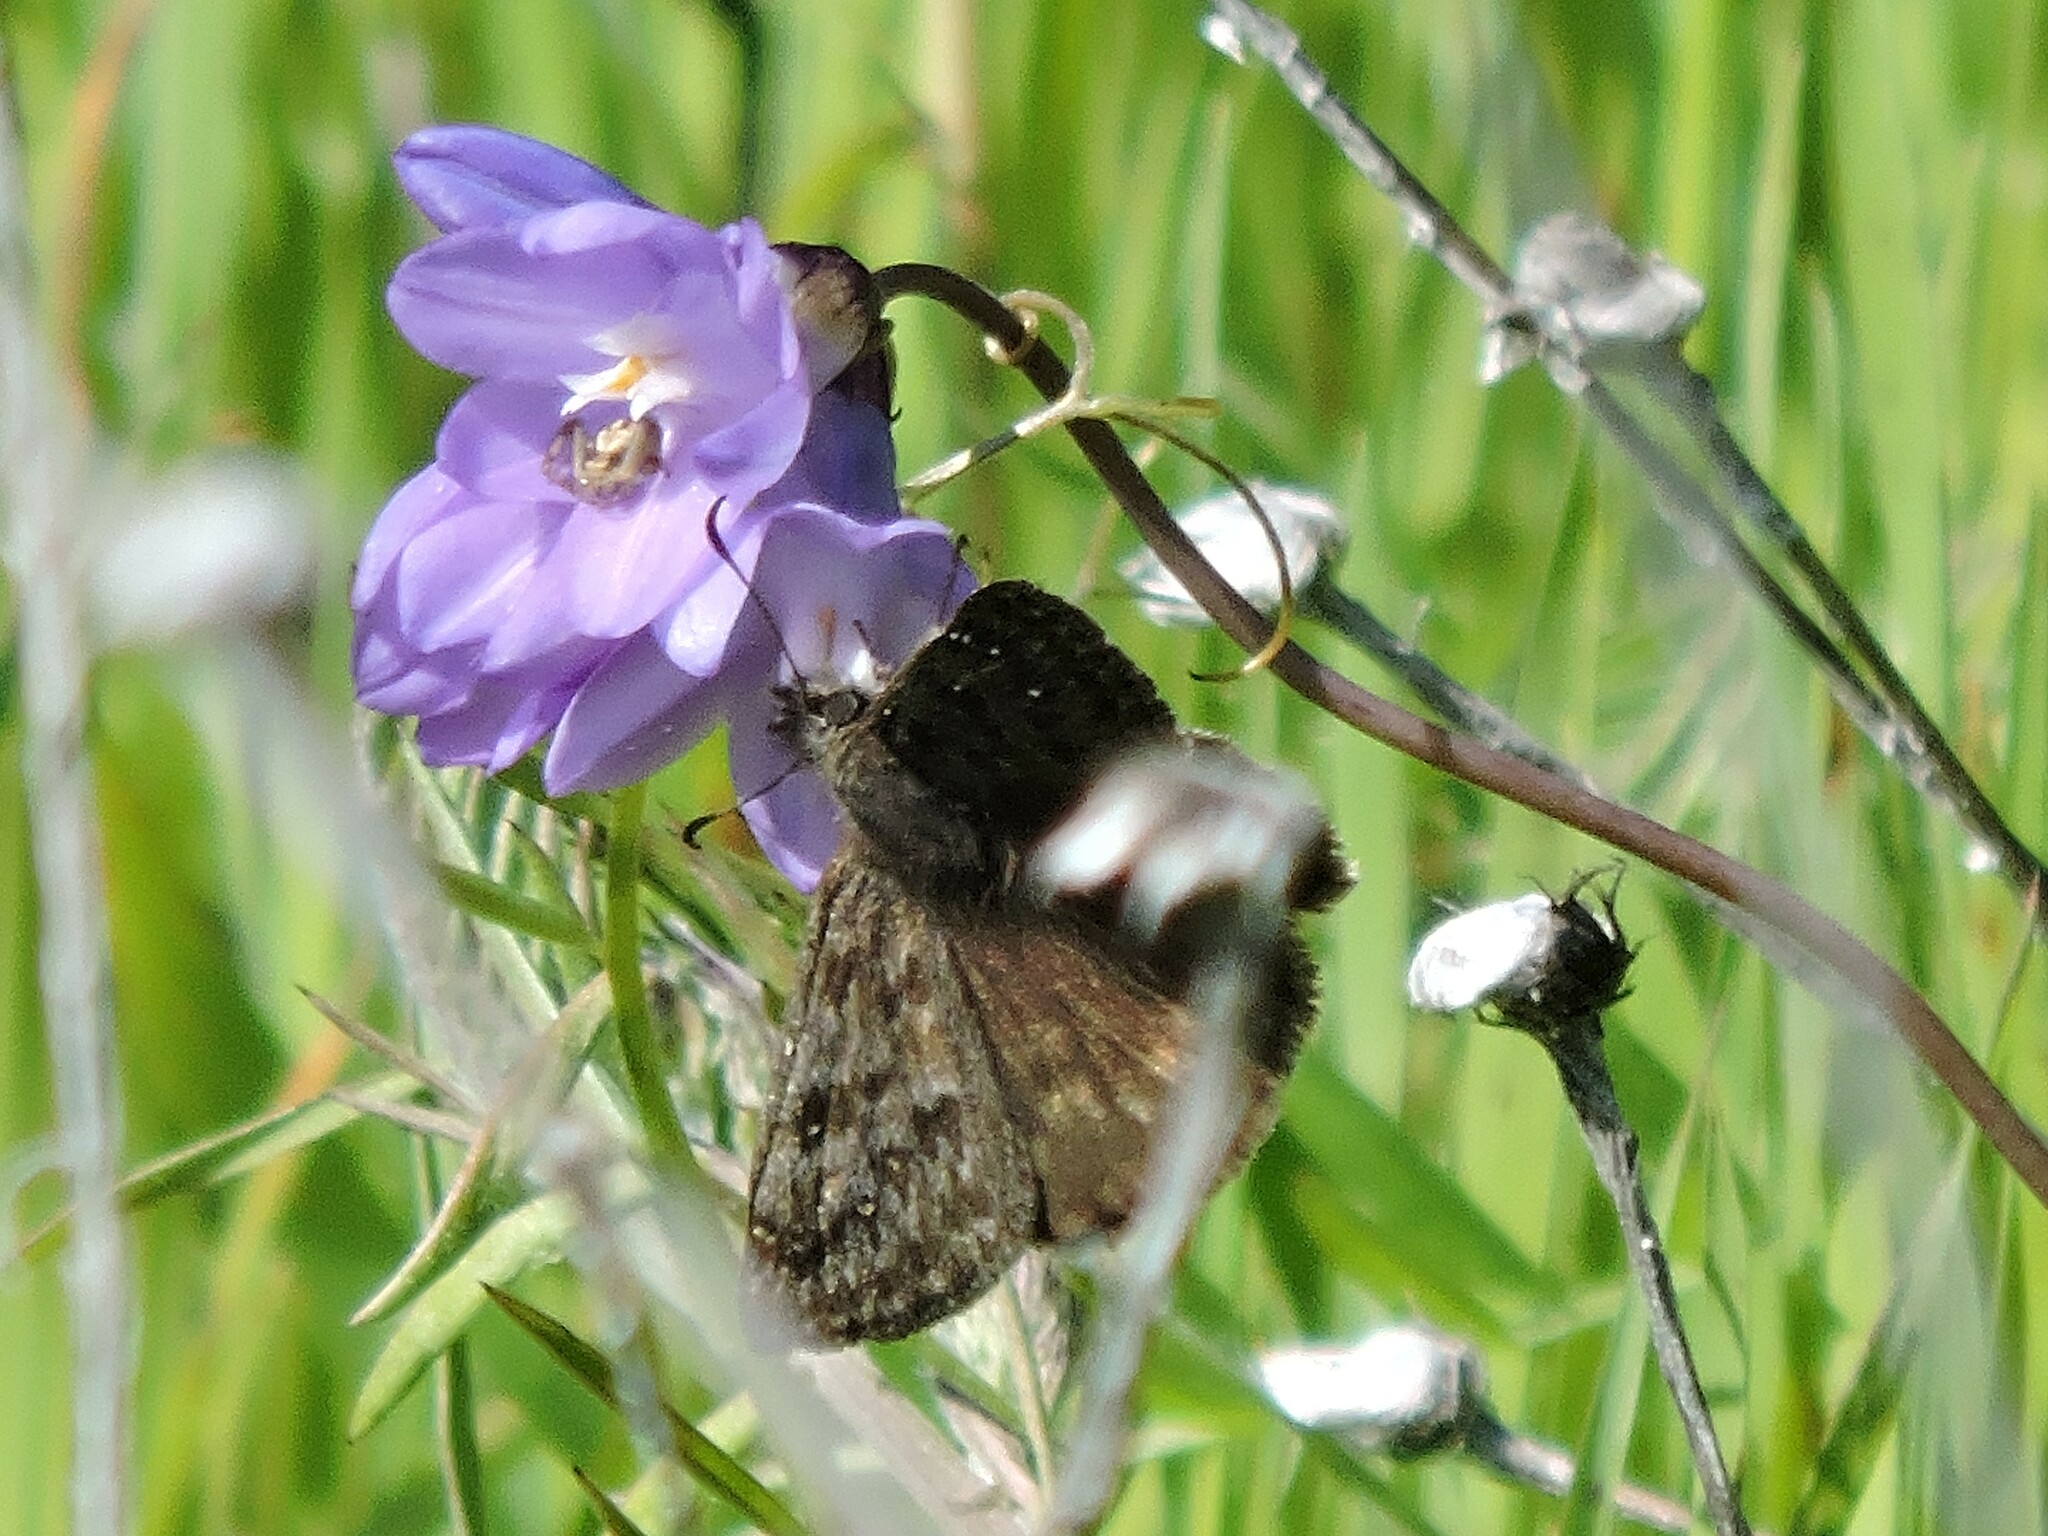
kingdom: Animalia
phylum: Arthropoda
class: Insecta
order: Lepidoptera
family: Hesperiidae
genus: Erynnis
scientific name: Erynnis propertius
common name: Propertius duskywing
